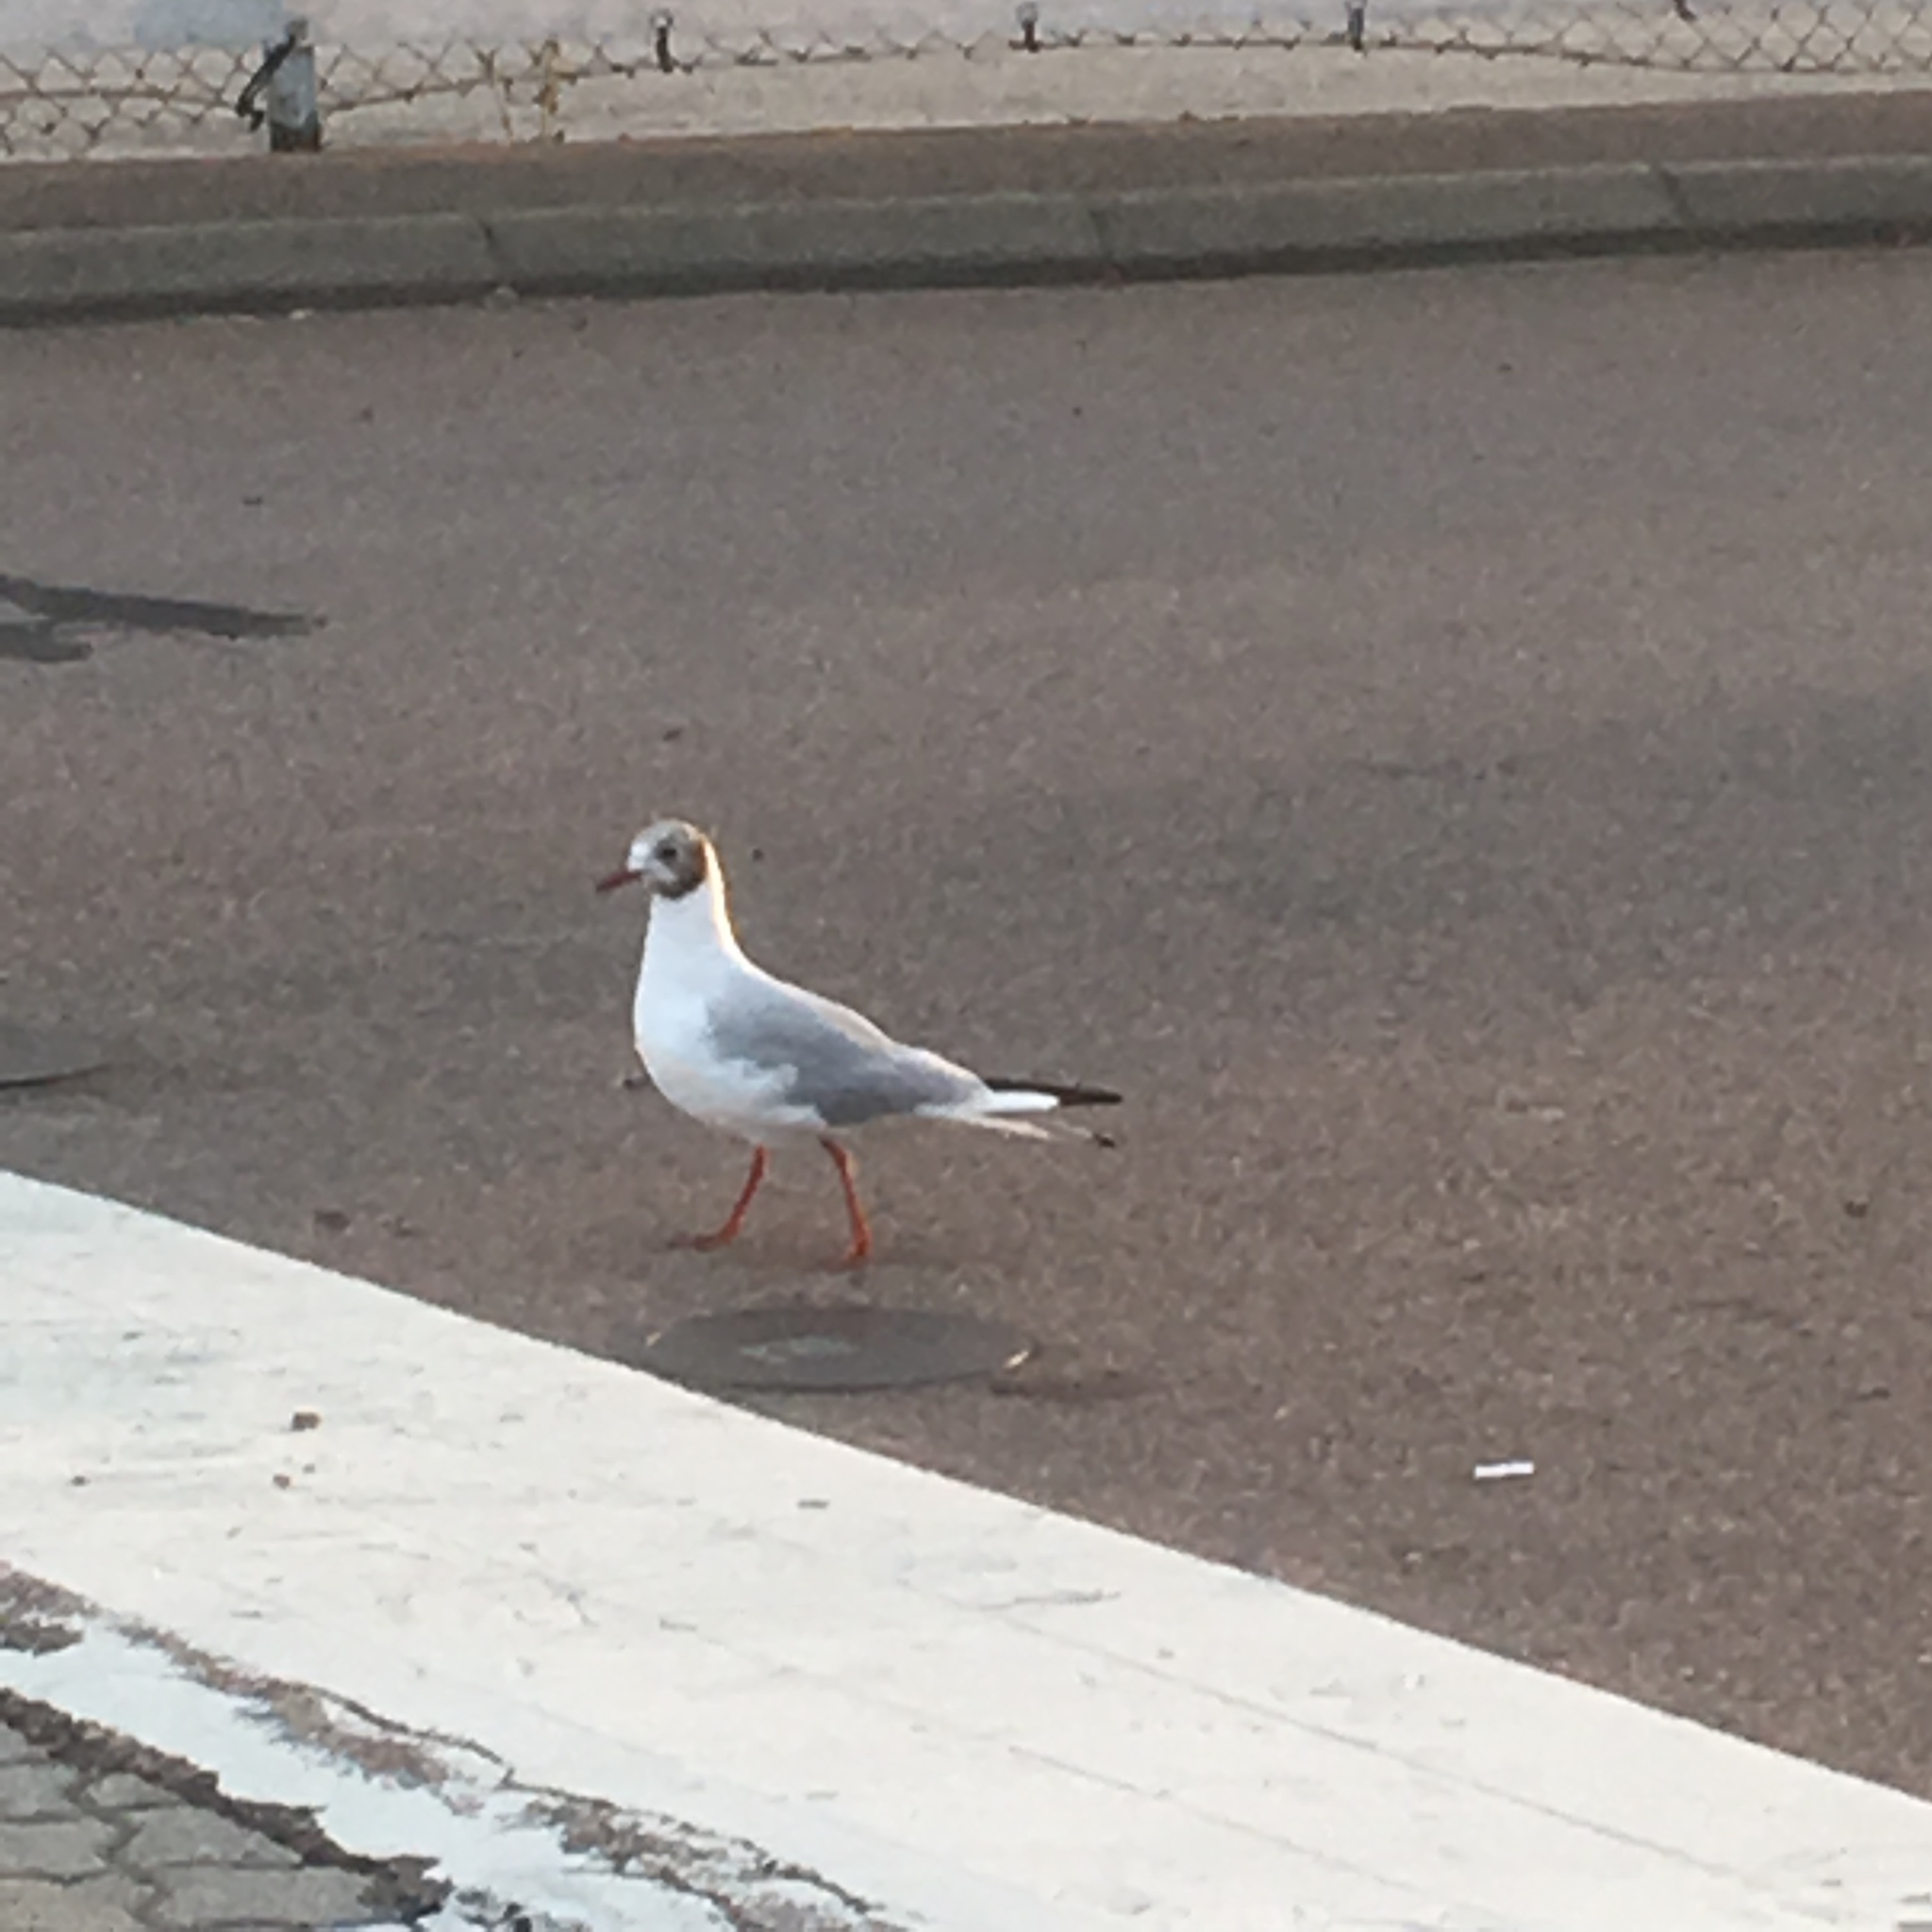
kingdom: Animalia
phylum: Chordata
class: Aves
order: Charadriiformes
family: Laridae
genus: Chroicocephalus
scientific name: Chroicocephalus ridibundus
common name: Black-headed gull
